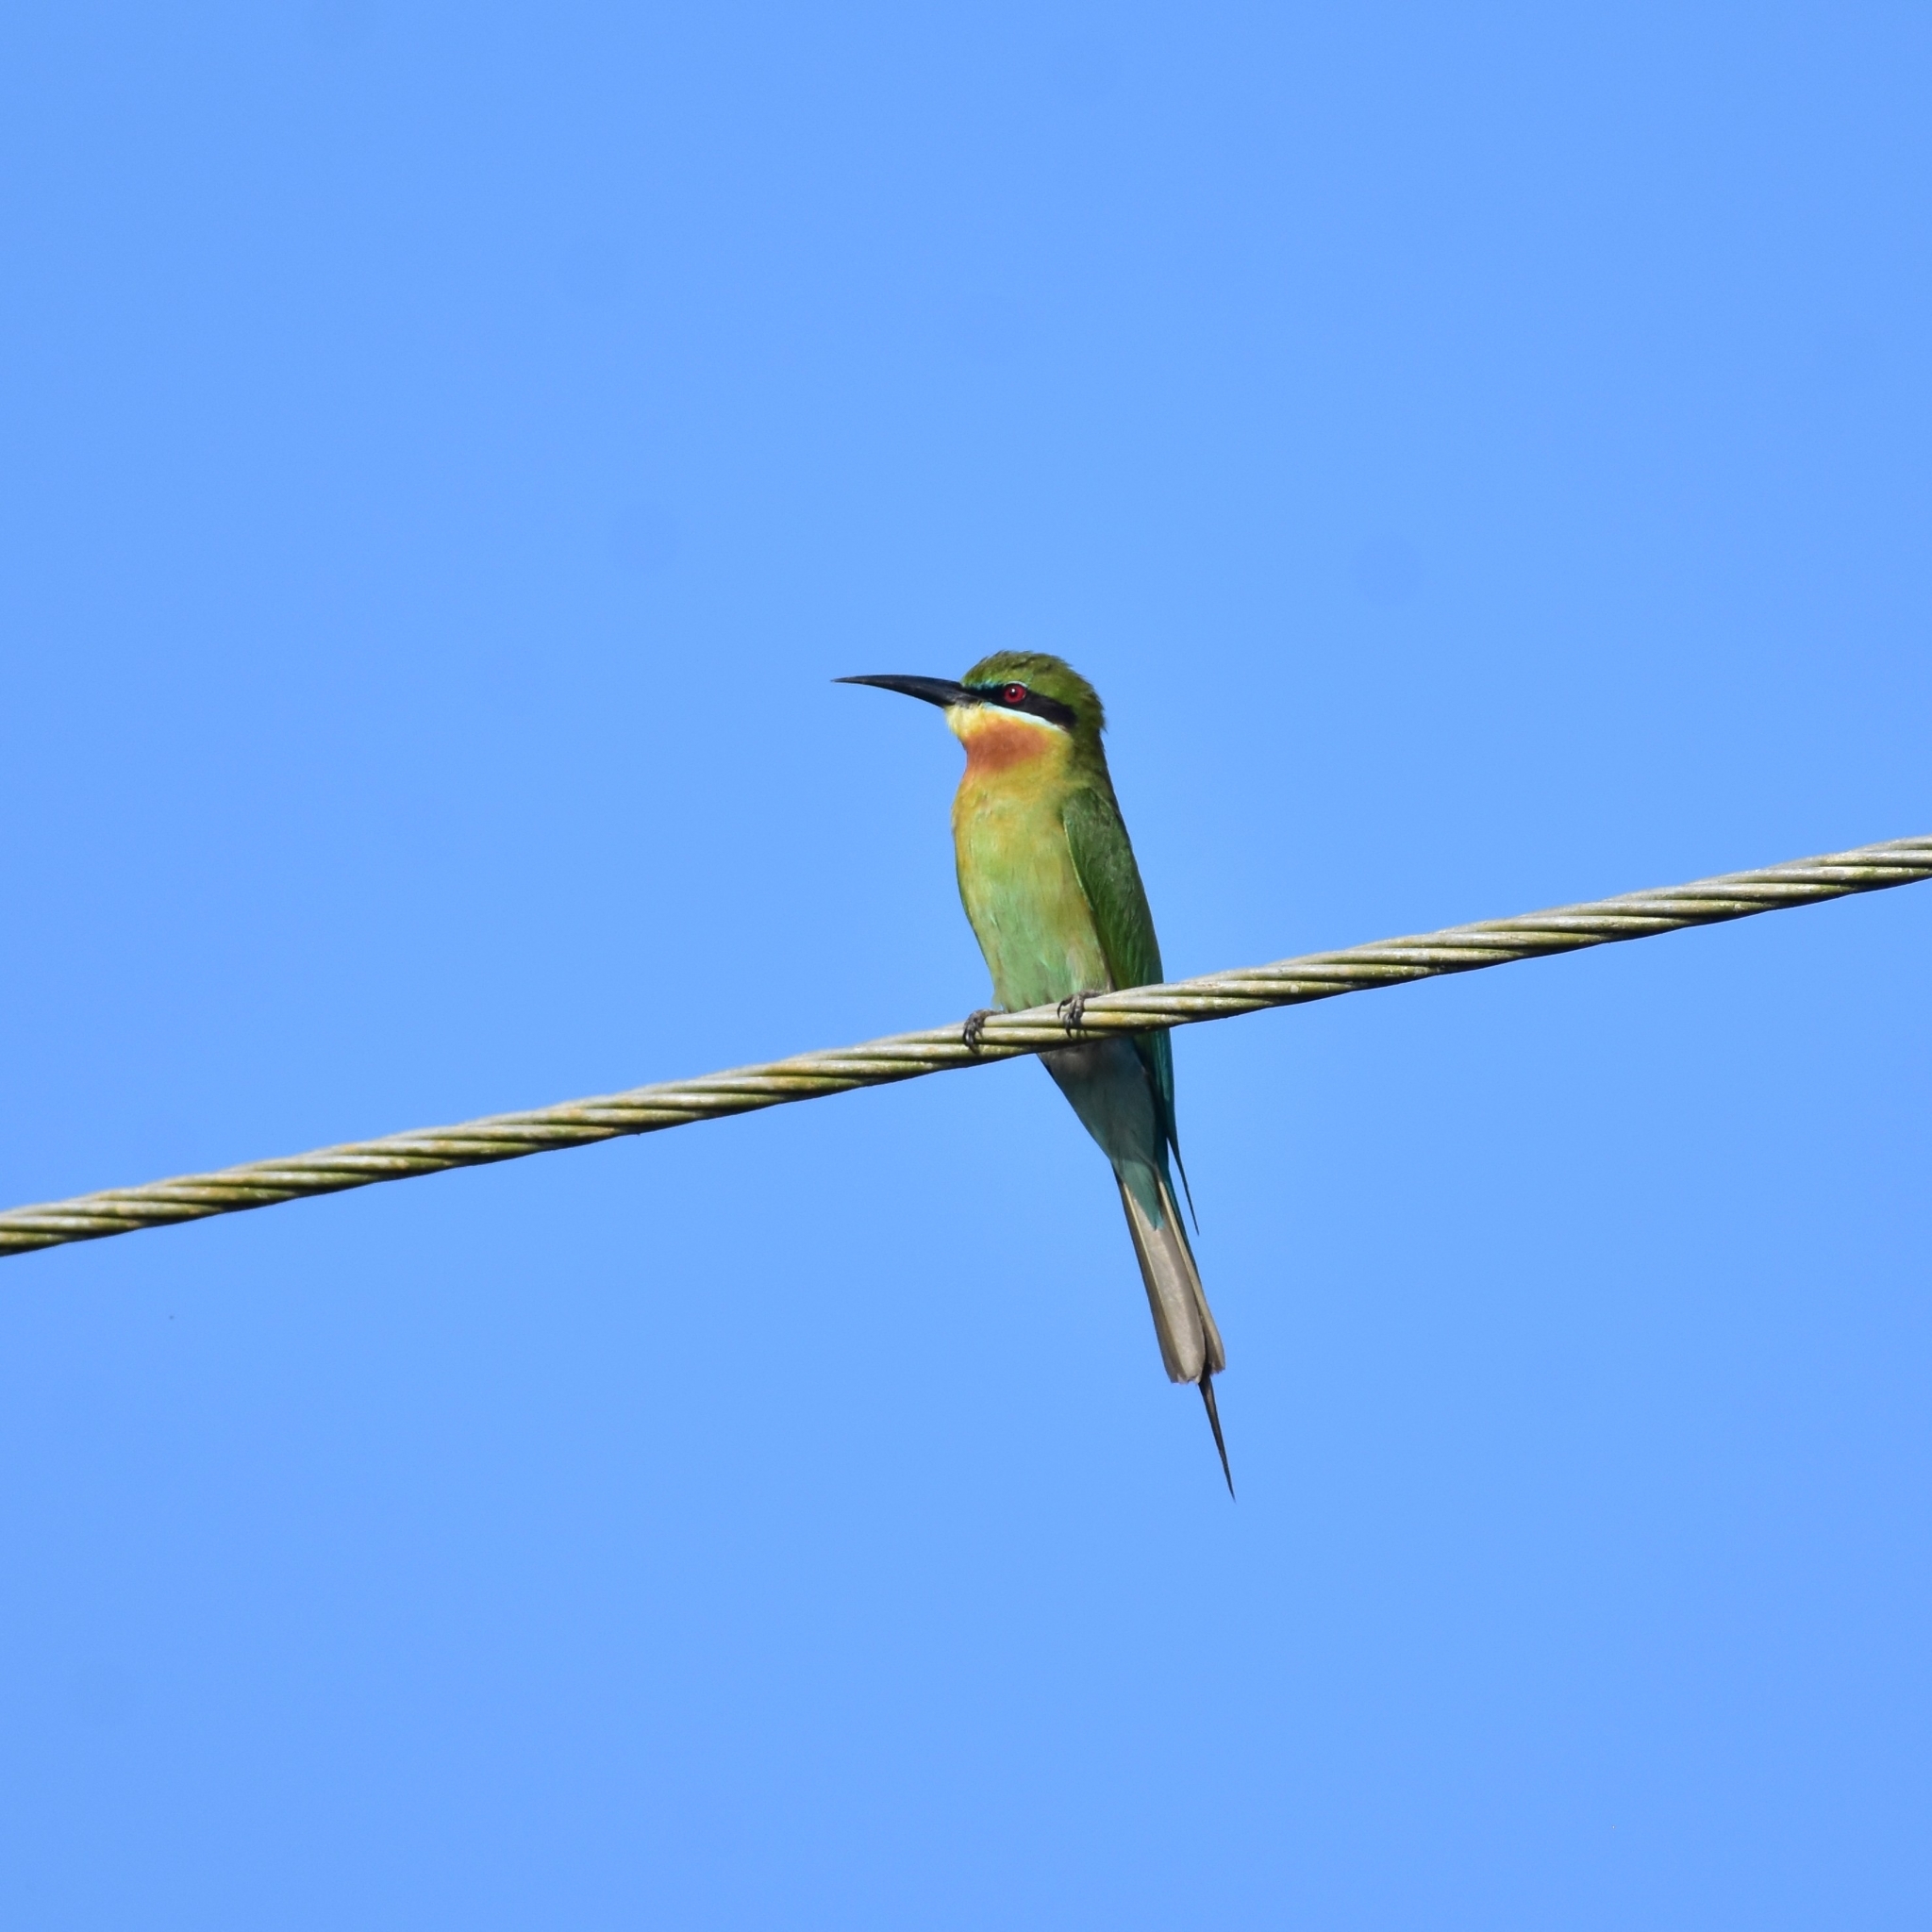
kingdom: Animalia
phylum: Chordata
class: Aves
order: Coraciiformes
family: Meropidae
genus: Merops
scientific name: Merops philippinus
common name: Blue-tailed bee-eater
